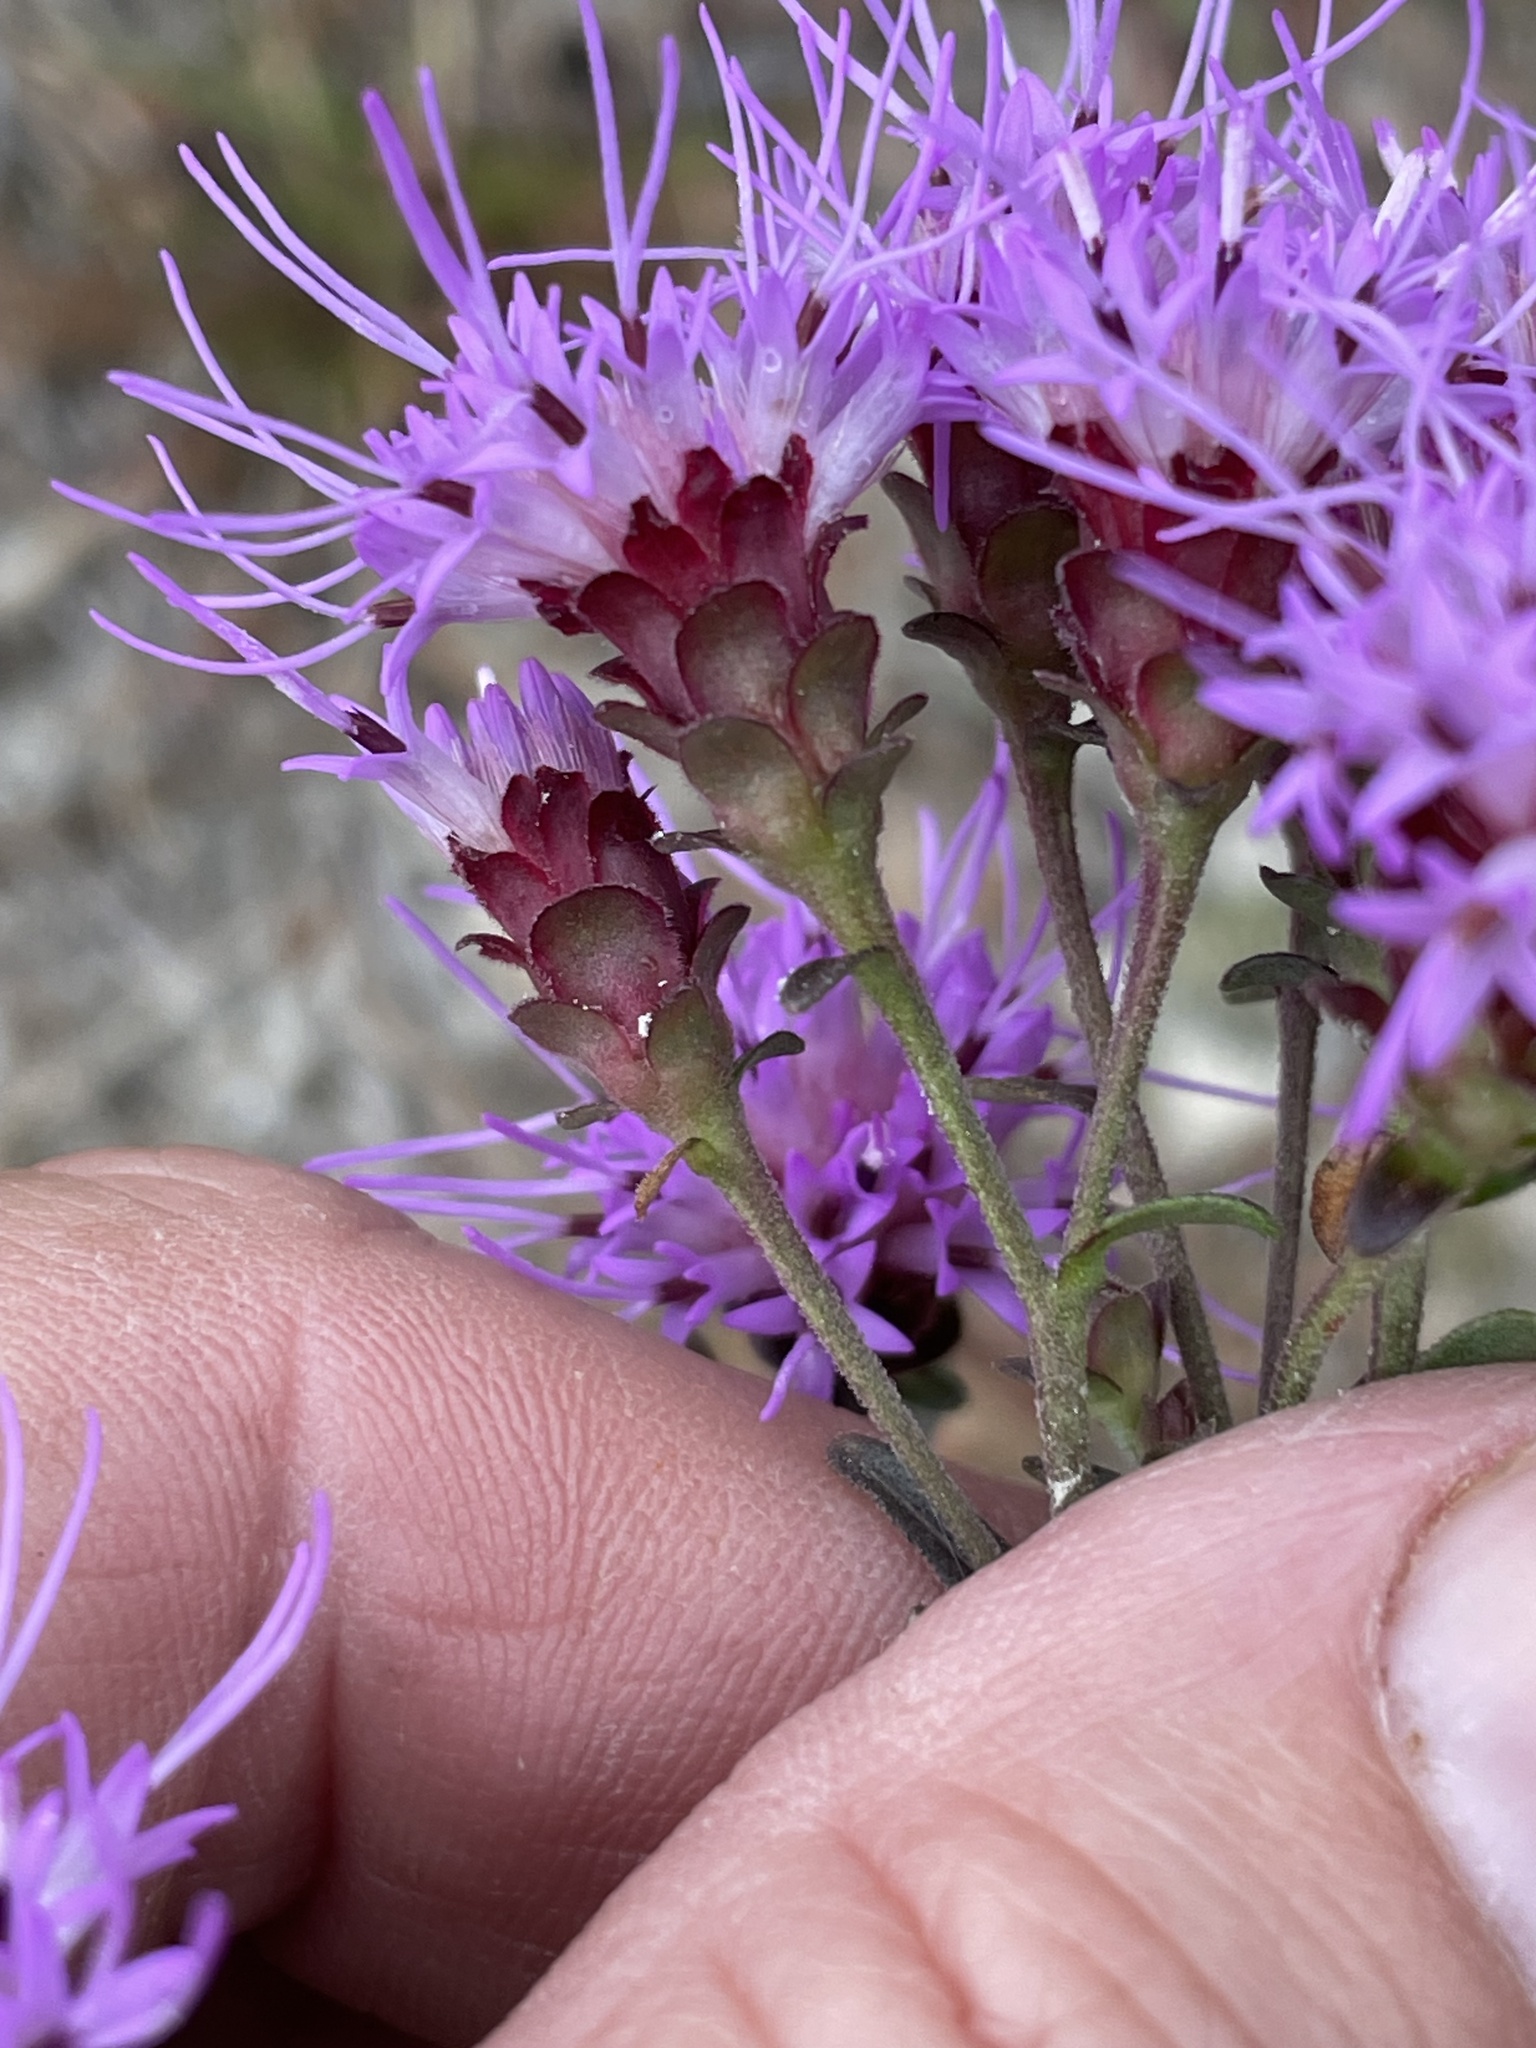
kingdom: Plantae
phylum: Tracheophyta
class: Magnoliopsida
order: Asterales
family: Asteraceae
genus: Carphephorus
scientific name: Carphephorus bellidifolius
